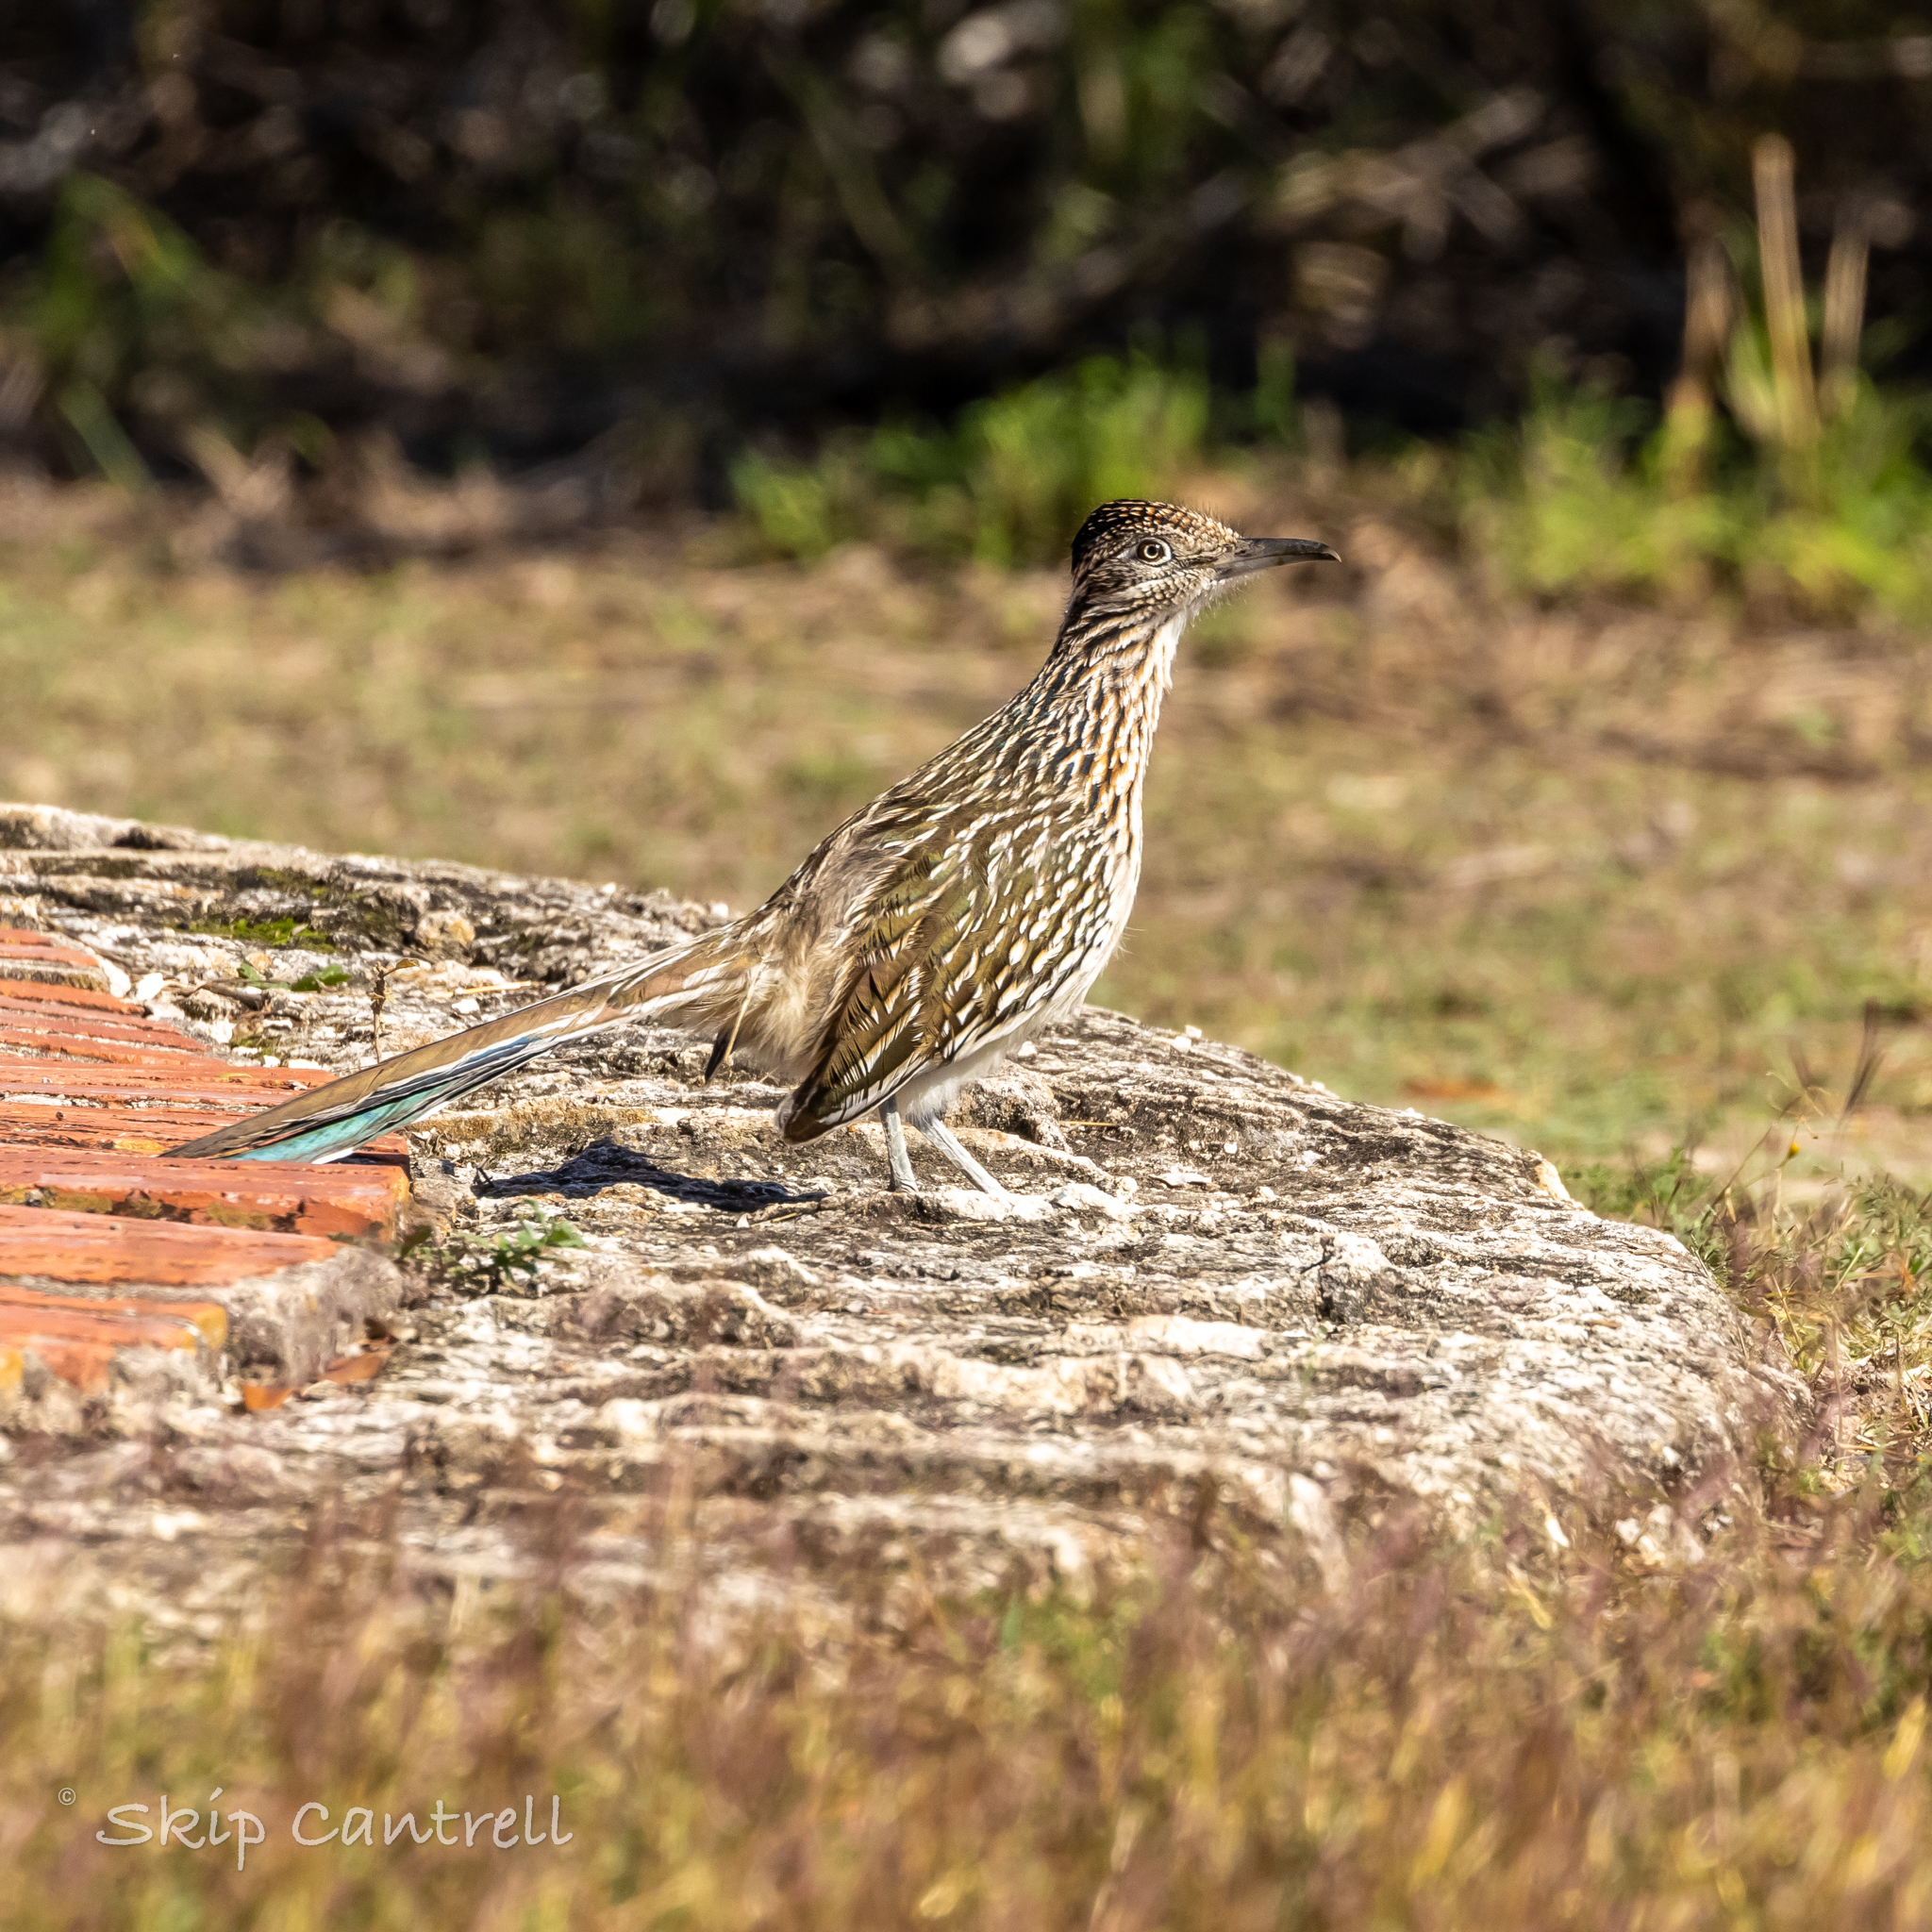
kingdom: Animalia
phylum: Chordata
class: Aves
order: Cuculiformes
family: Cuculidae
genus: Geococcyx
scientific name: Geococcyx californianus
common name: Greater roadrunner
